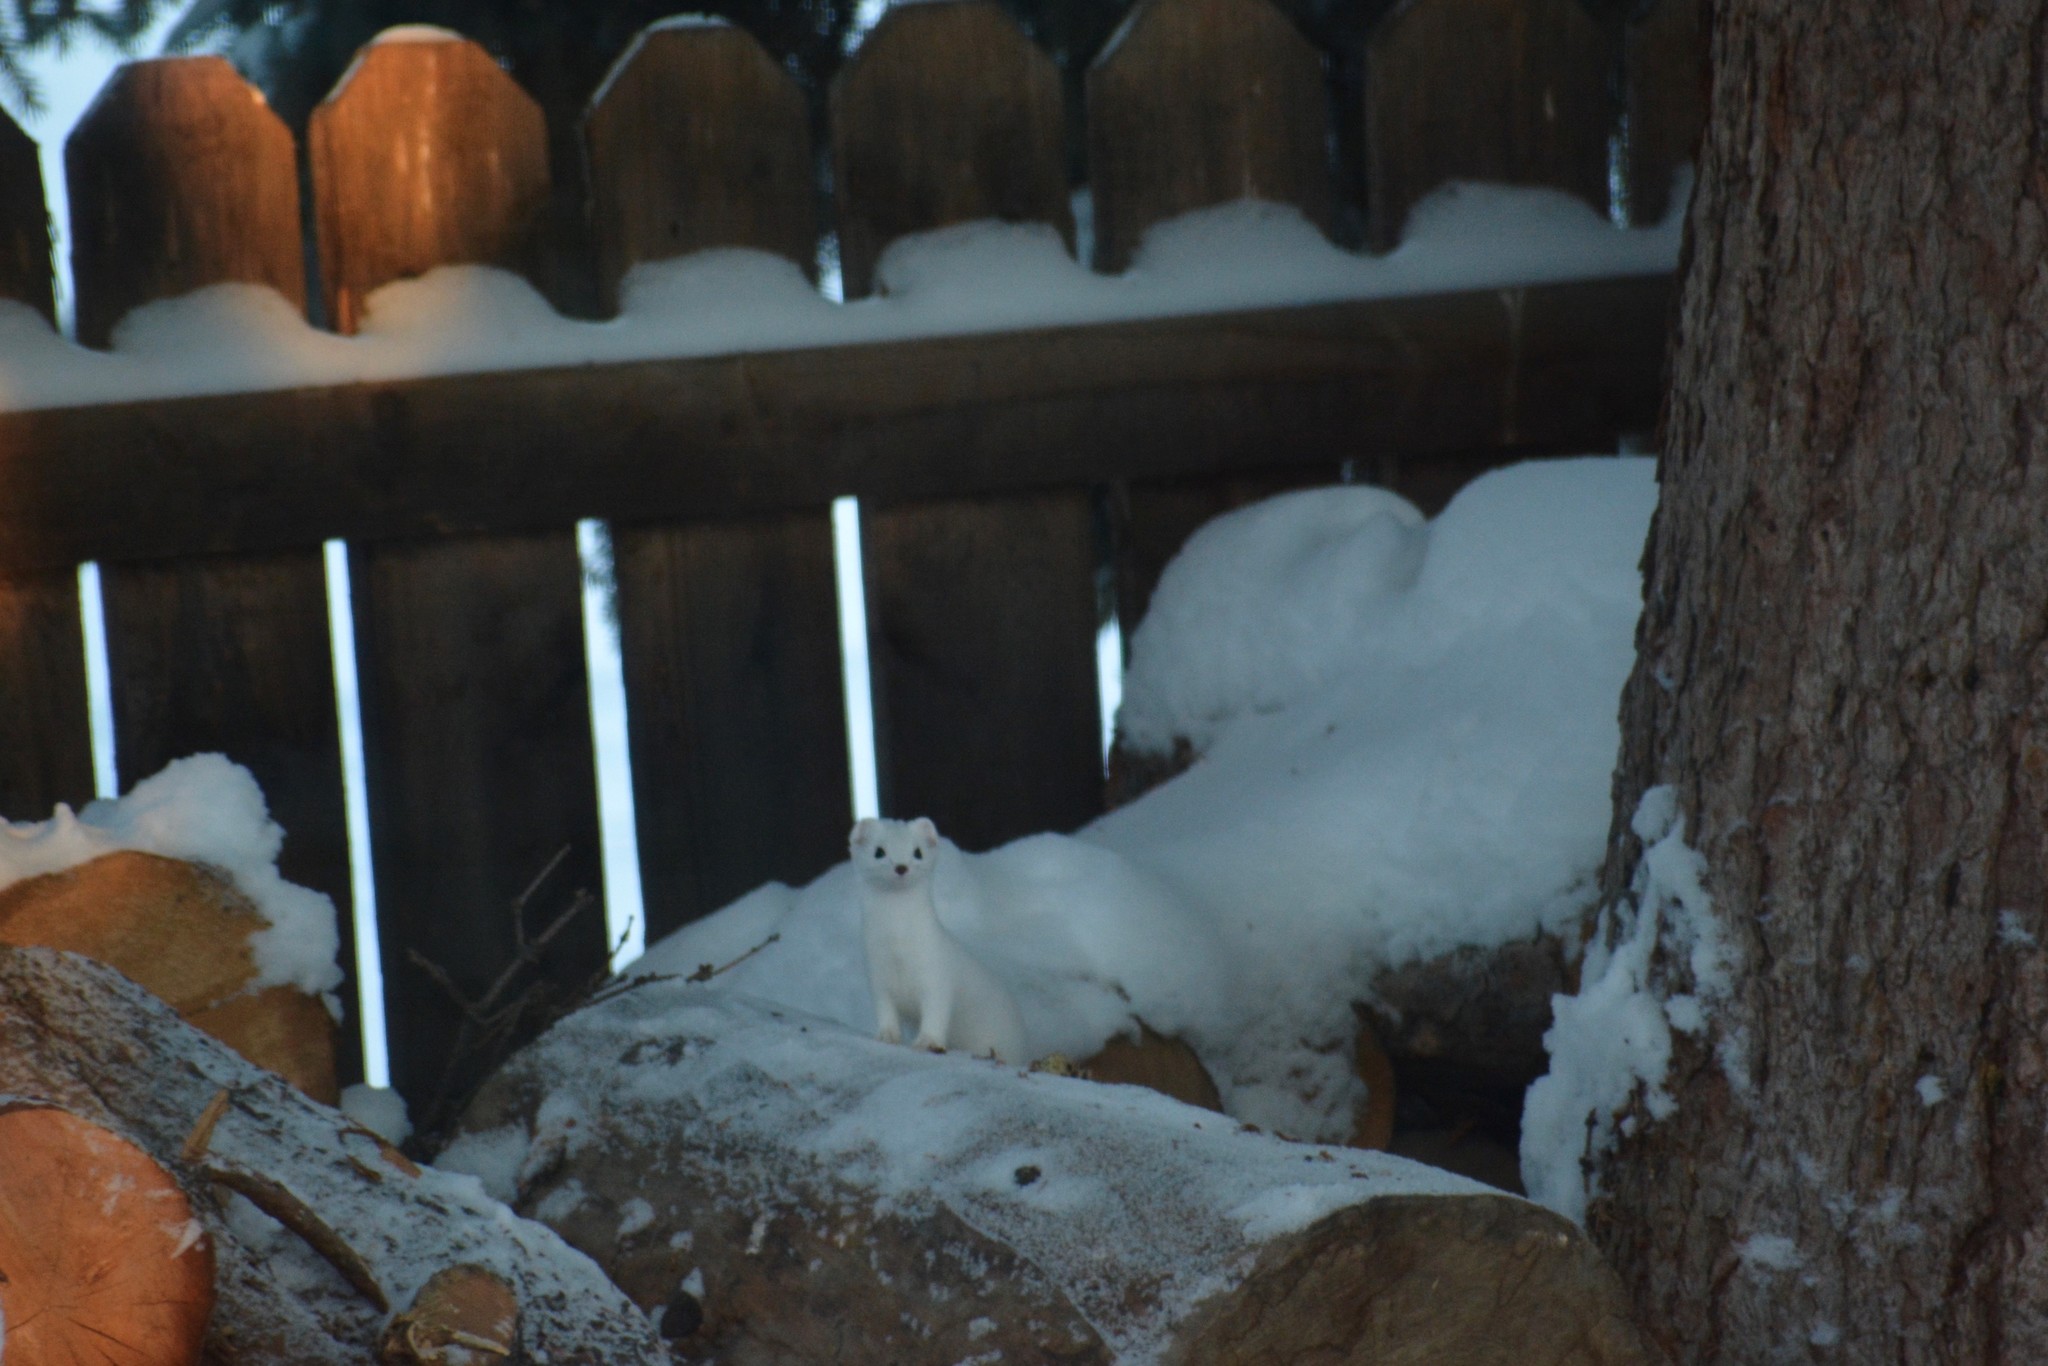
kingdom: Animalia
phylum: Chordata
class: Mammalia
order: Carnivora
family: Mustelidae
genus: Mustela
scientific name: Mustela erminea
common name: Stoat
